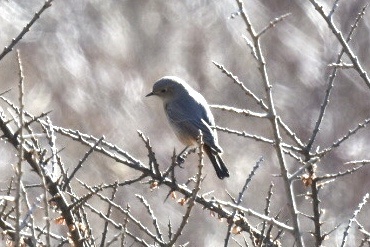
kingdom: Animalia
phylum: Chordata
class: Aves
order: Passeriformes
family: Muscicapidae
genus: Phoenicurus
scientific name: Phoenicurus ochruros
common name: Black redstart
